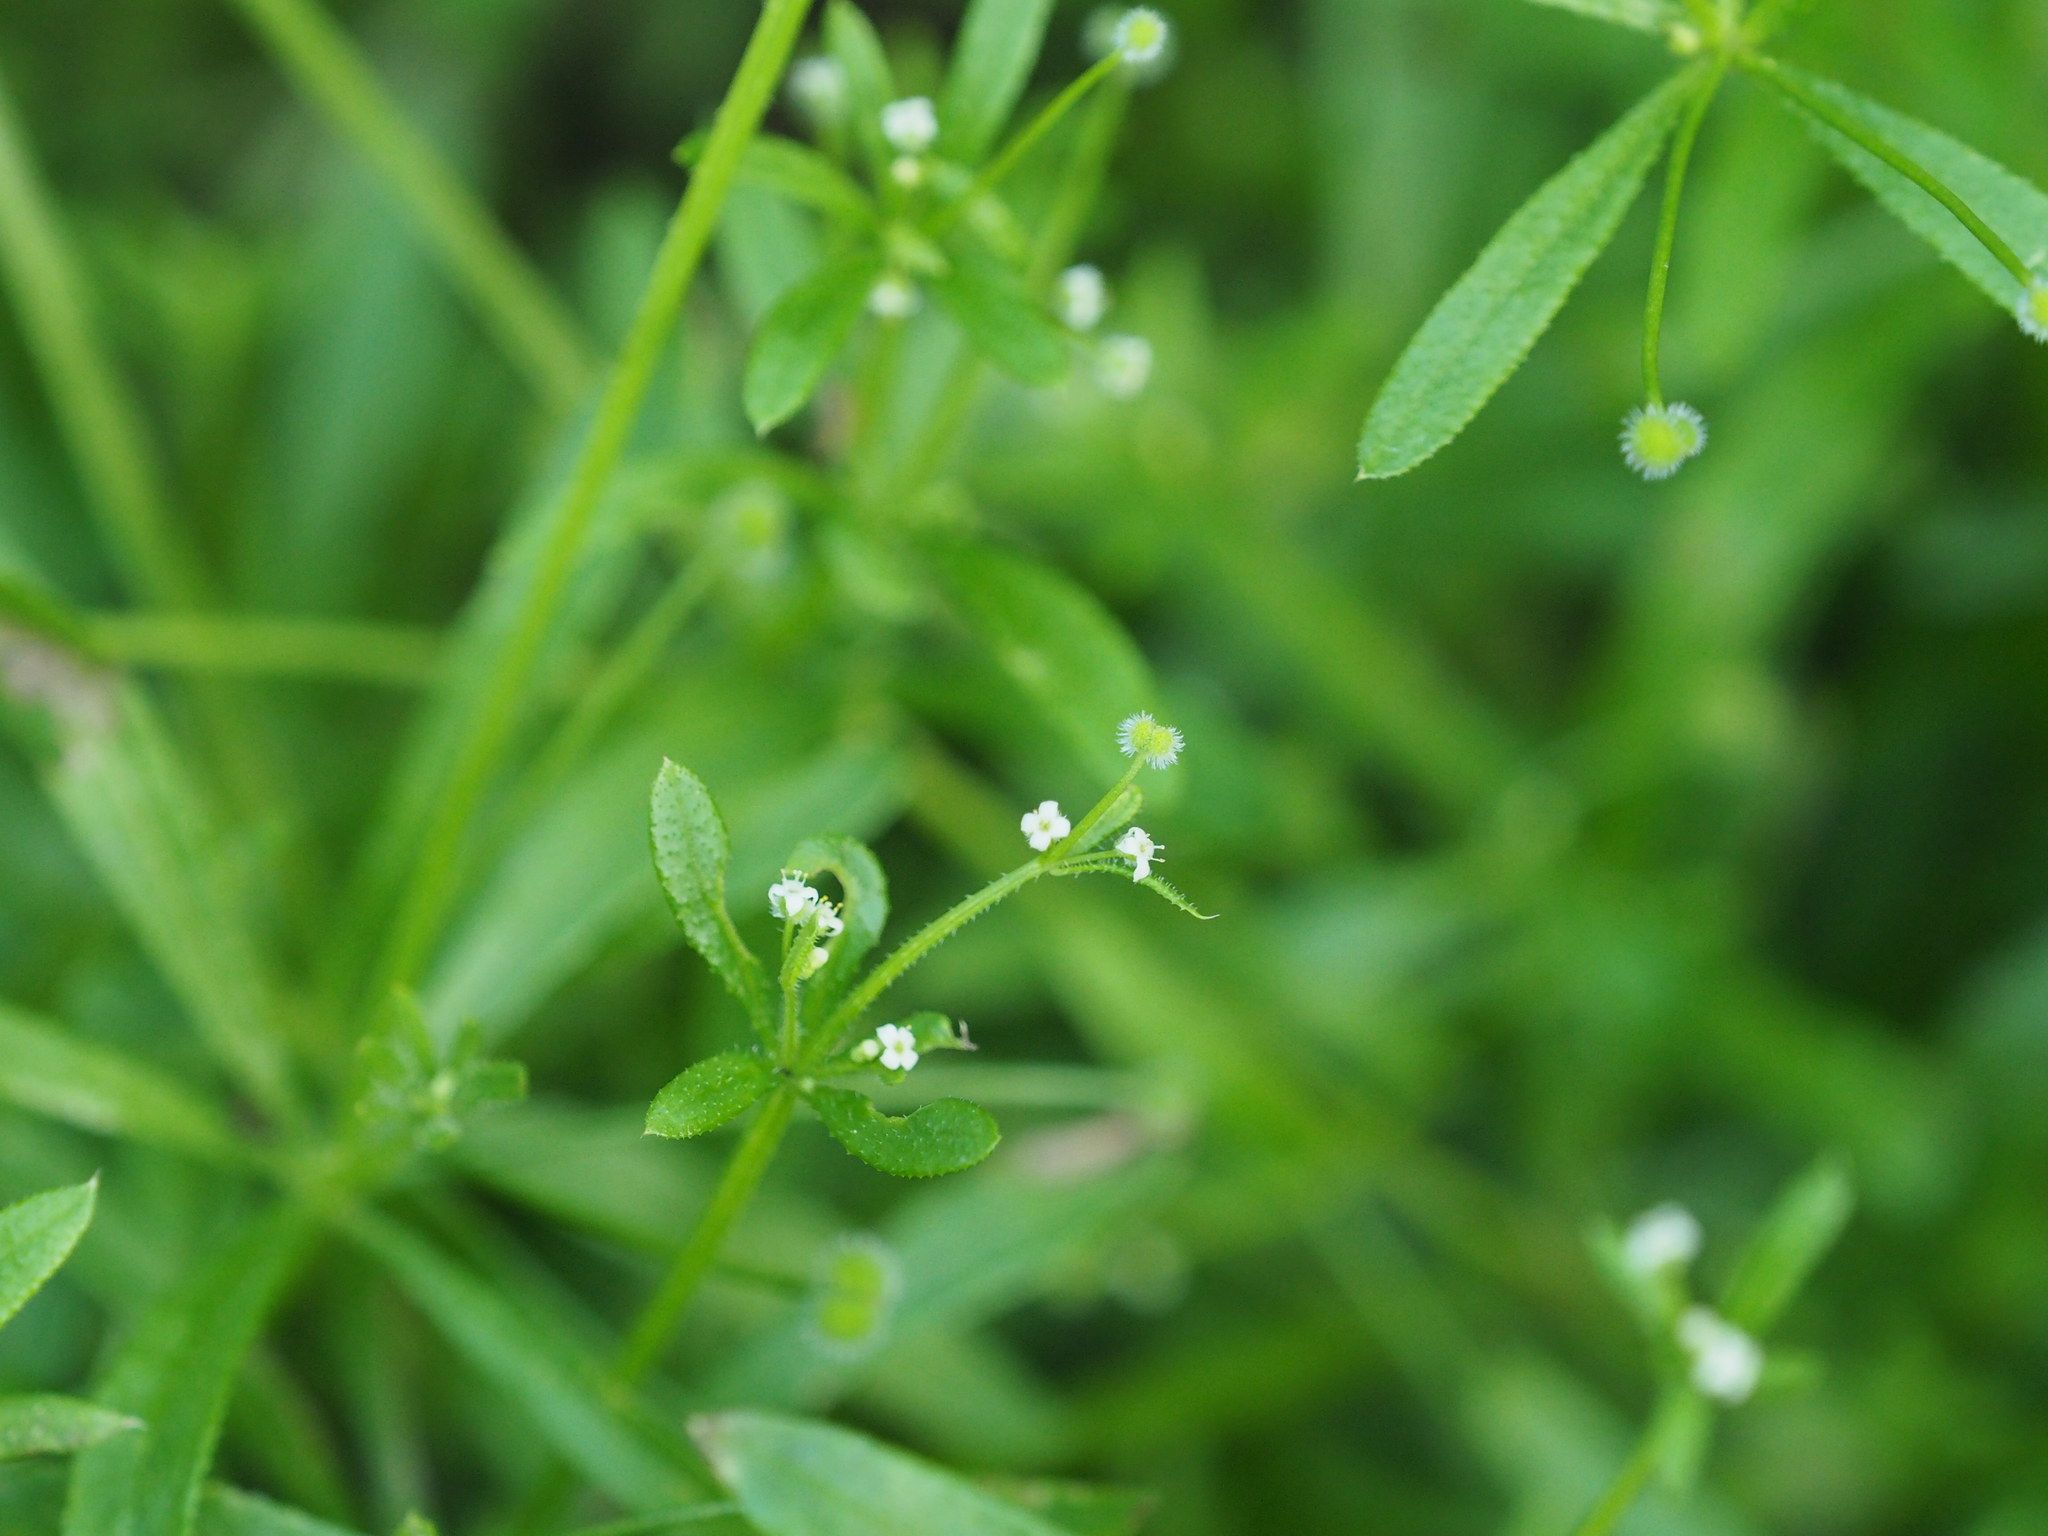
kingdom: Plantae
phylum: Tracheophyta
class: Magnoliopsida
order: Gentianales
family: Rubiaceae
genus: Galium
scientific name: Galium aparine
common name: Cleavers
